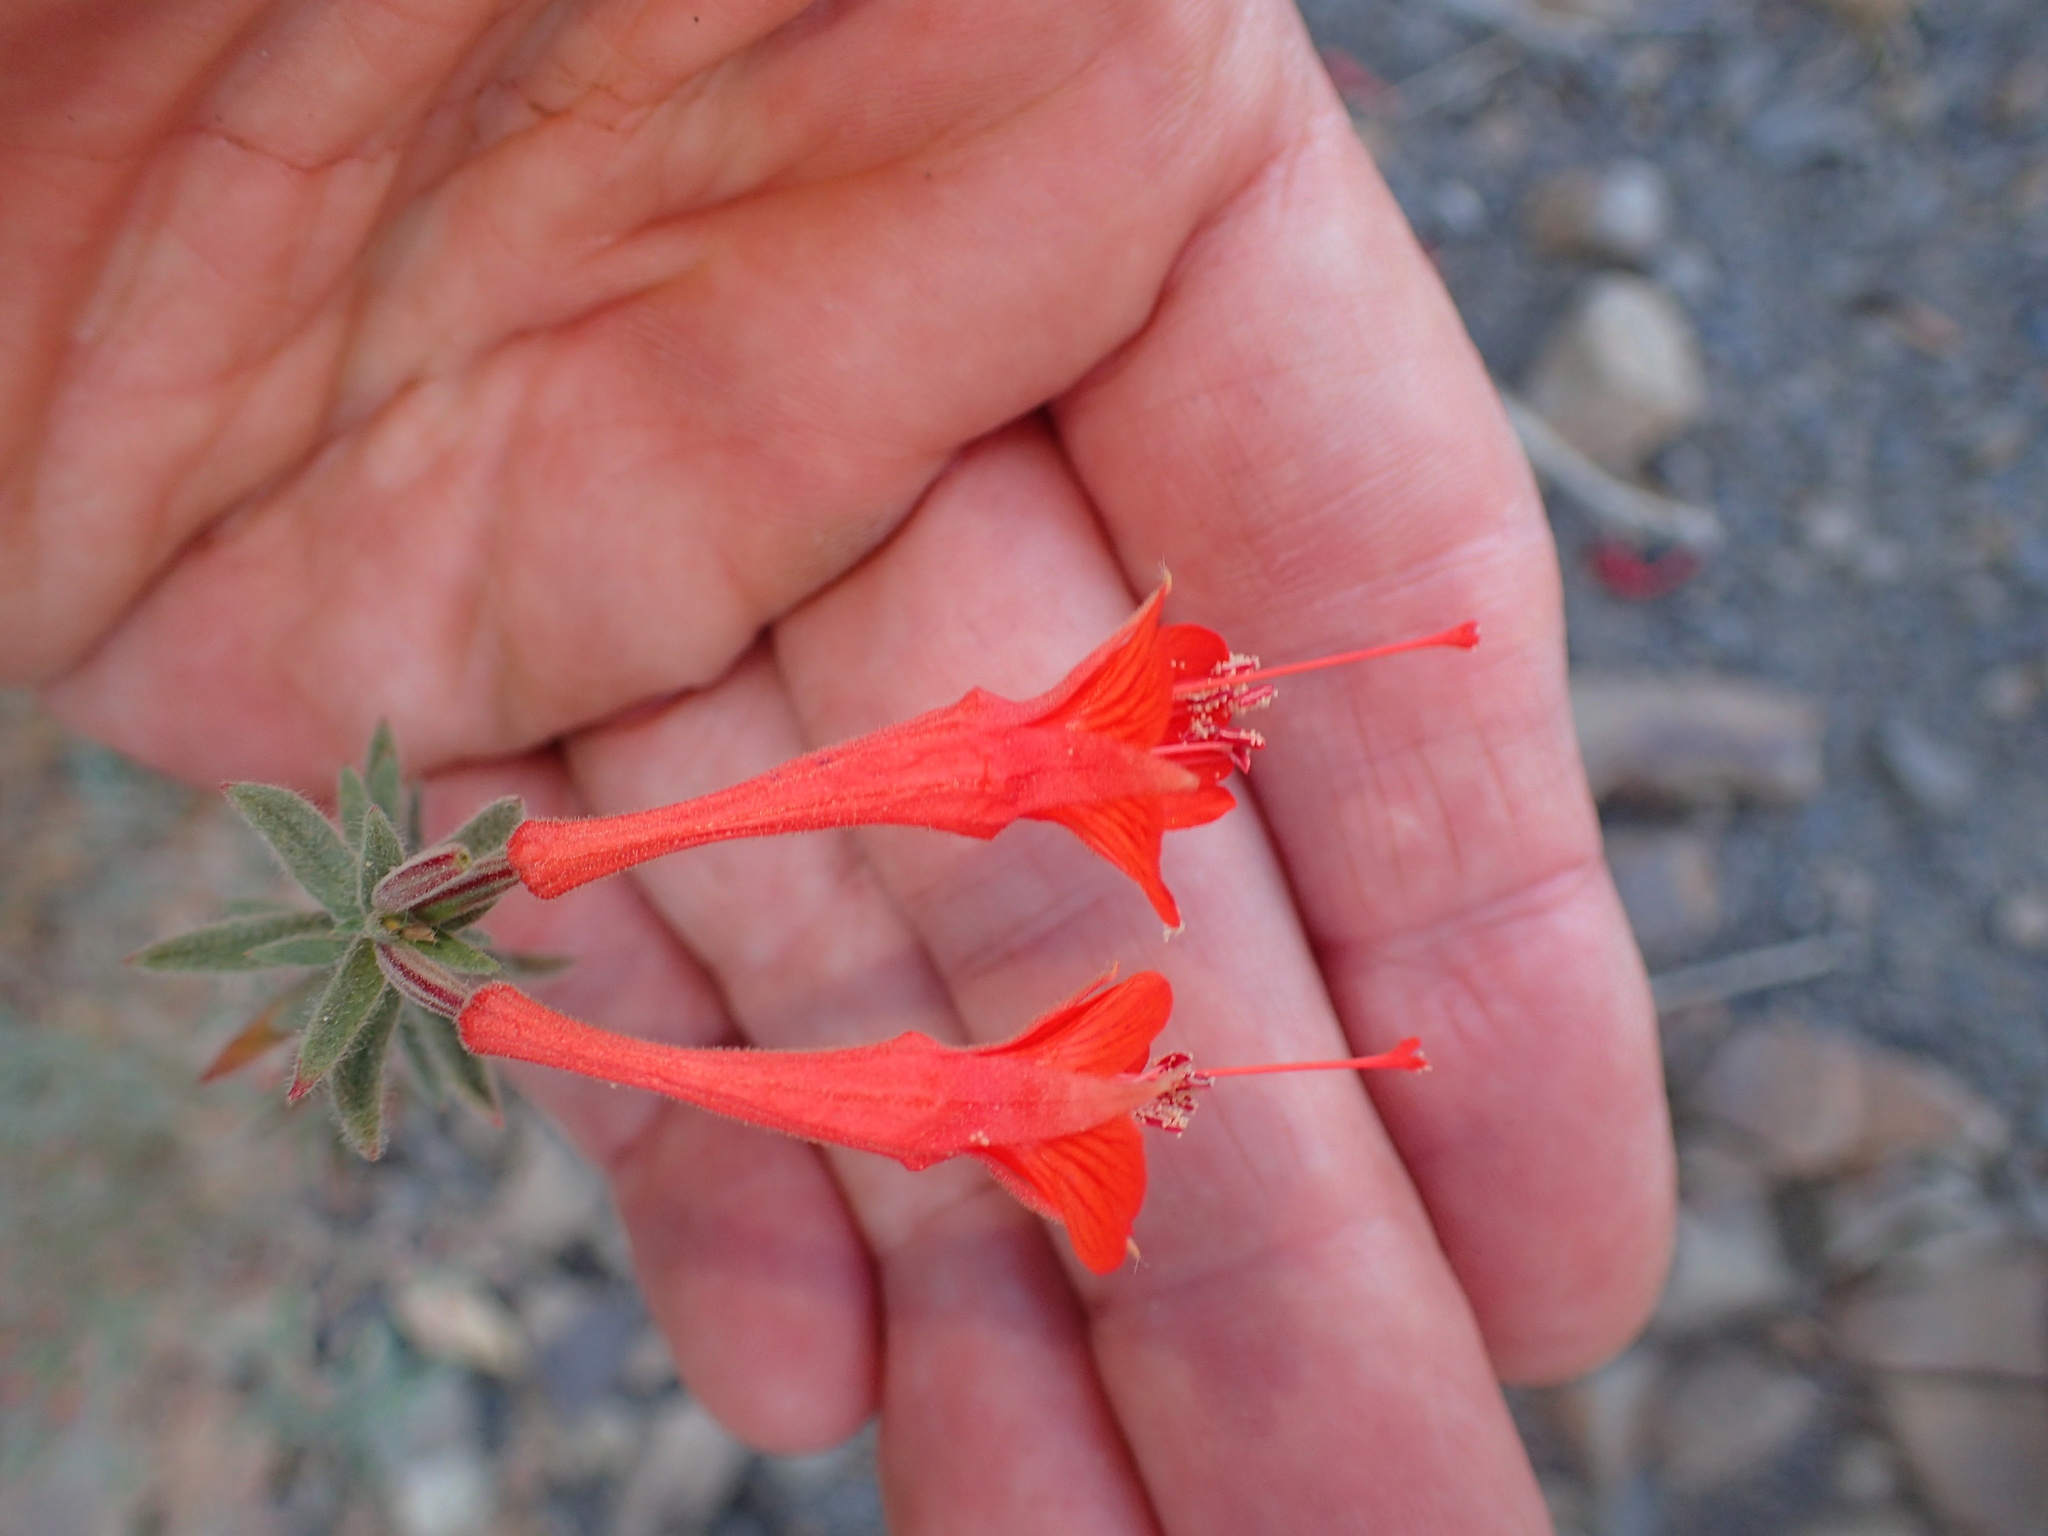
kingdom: Plantae
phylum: Tracheophyta
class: Magnoliopsida
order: Myrtales
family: Onagraceae
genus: Epilobium
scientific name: Epilobium canum
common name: California-fuchsia
